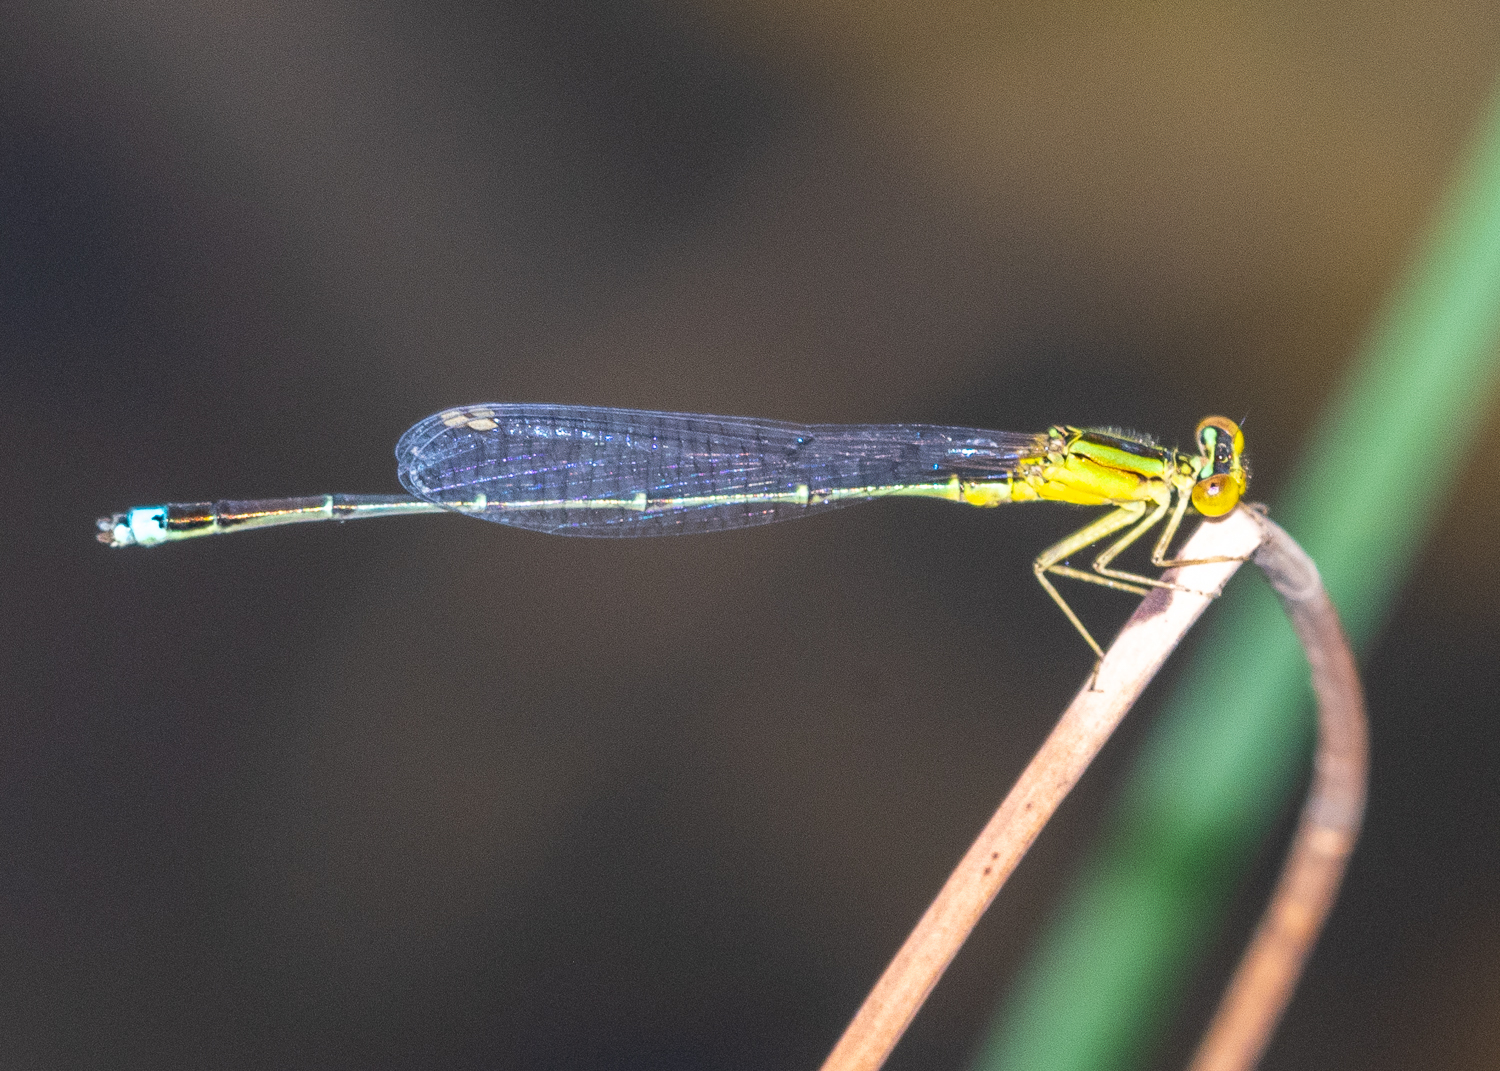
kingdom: Animalia
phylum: Arthropoda
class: Insecta
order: Odonata
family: Coenagrionidae
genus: Enallagma
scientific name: Enallagma vesperum
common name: Vesper bluet
